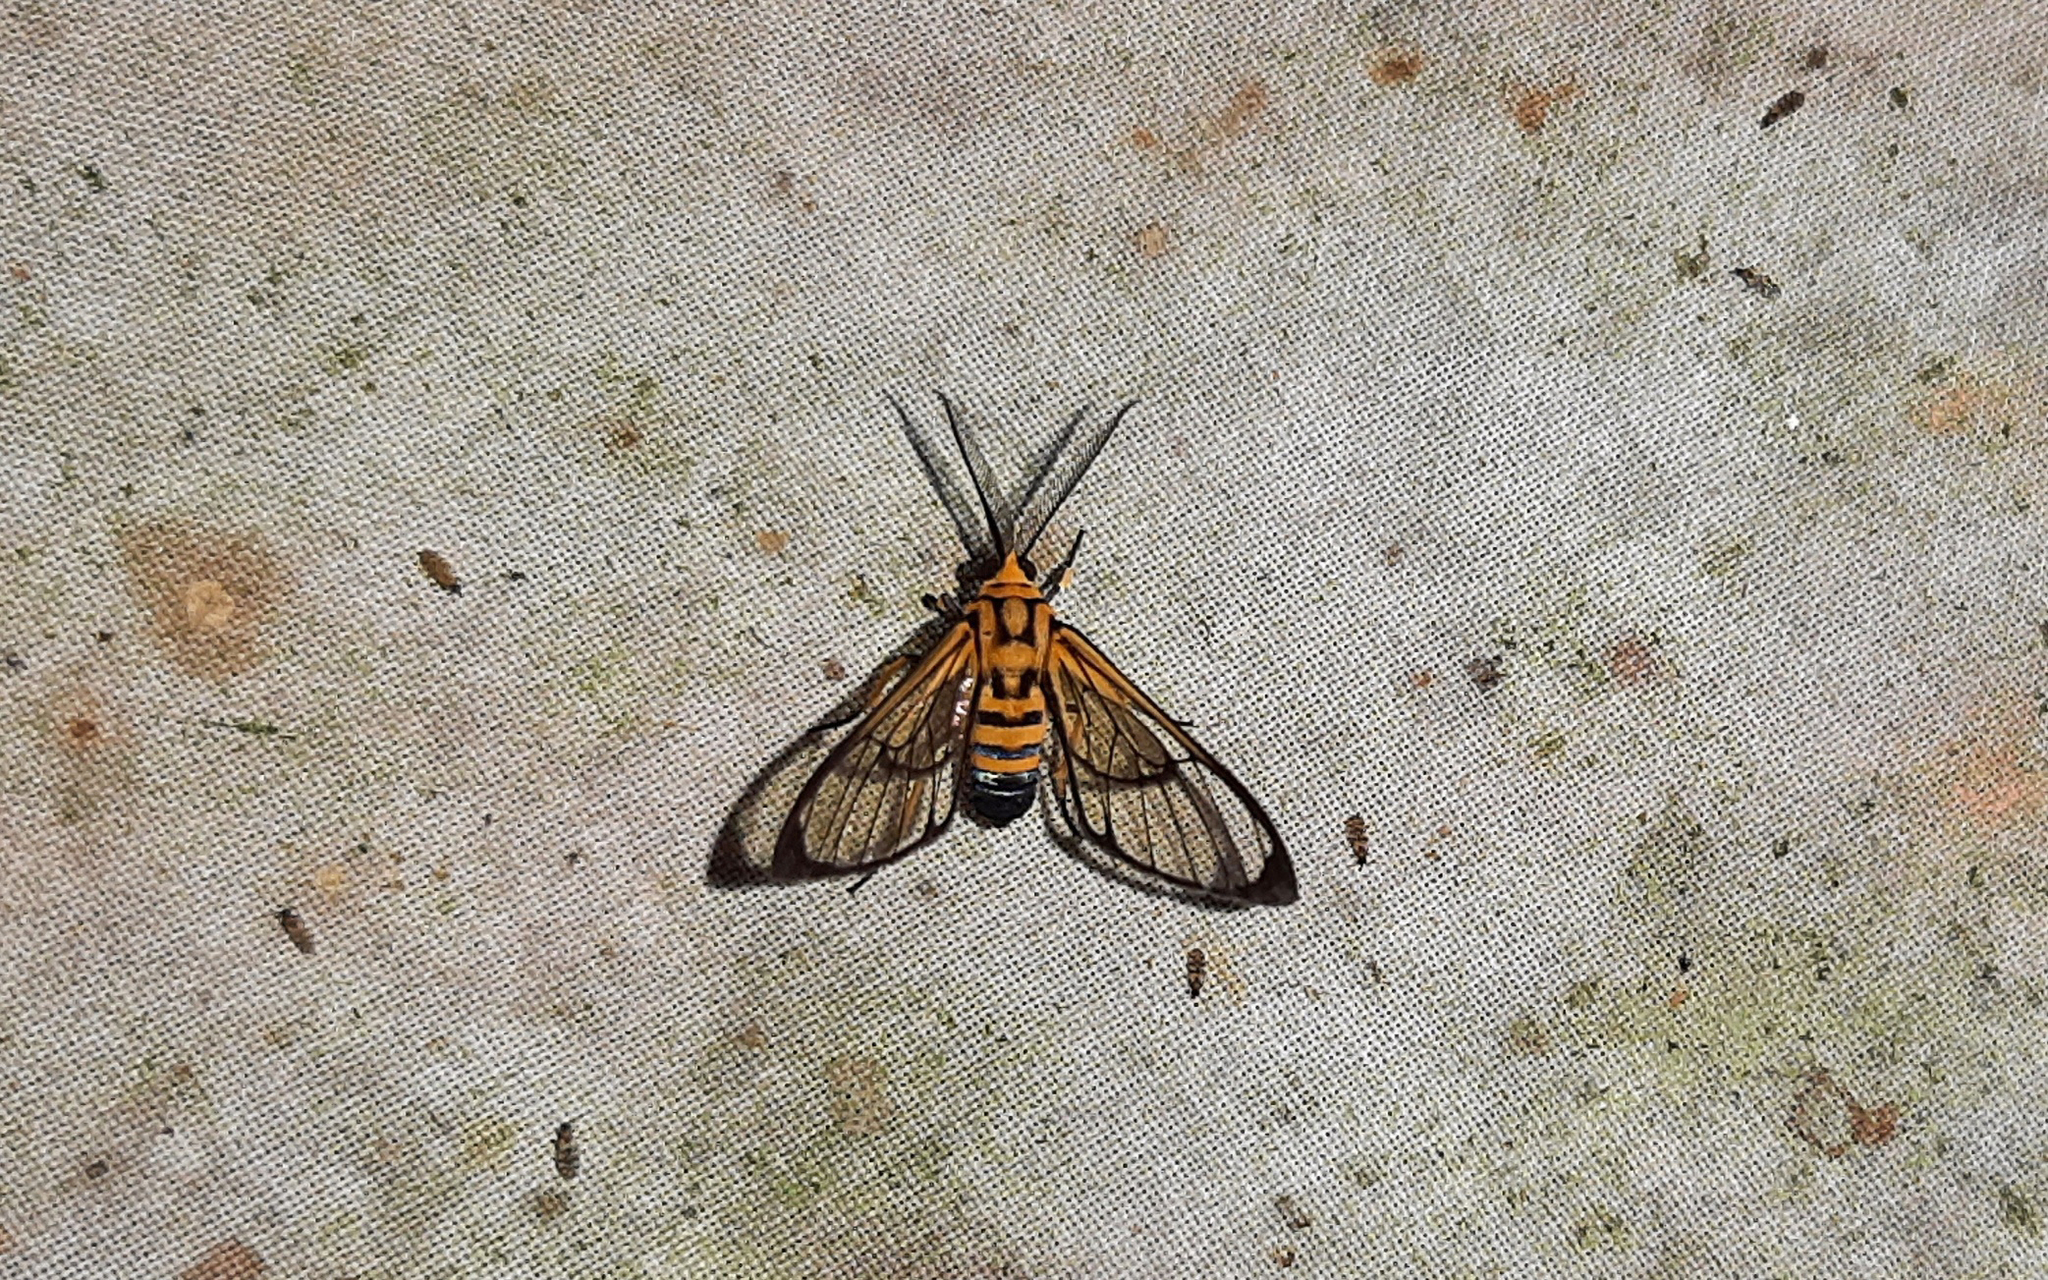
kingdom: Animalia
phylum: Arthropoda
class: Insecta
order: Lepidoptera
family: Erebidae
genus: Mesothen
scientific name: Mesothen nomia
